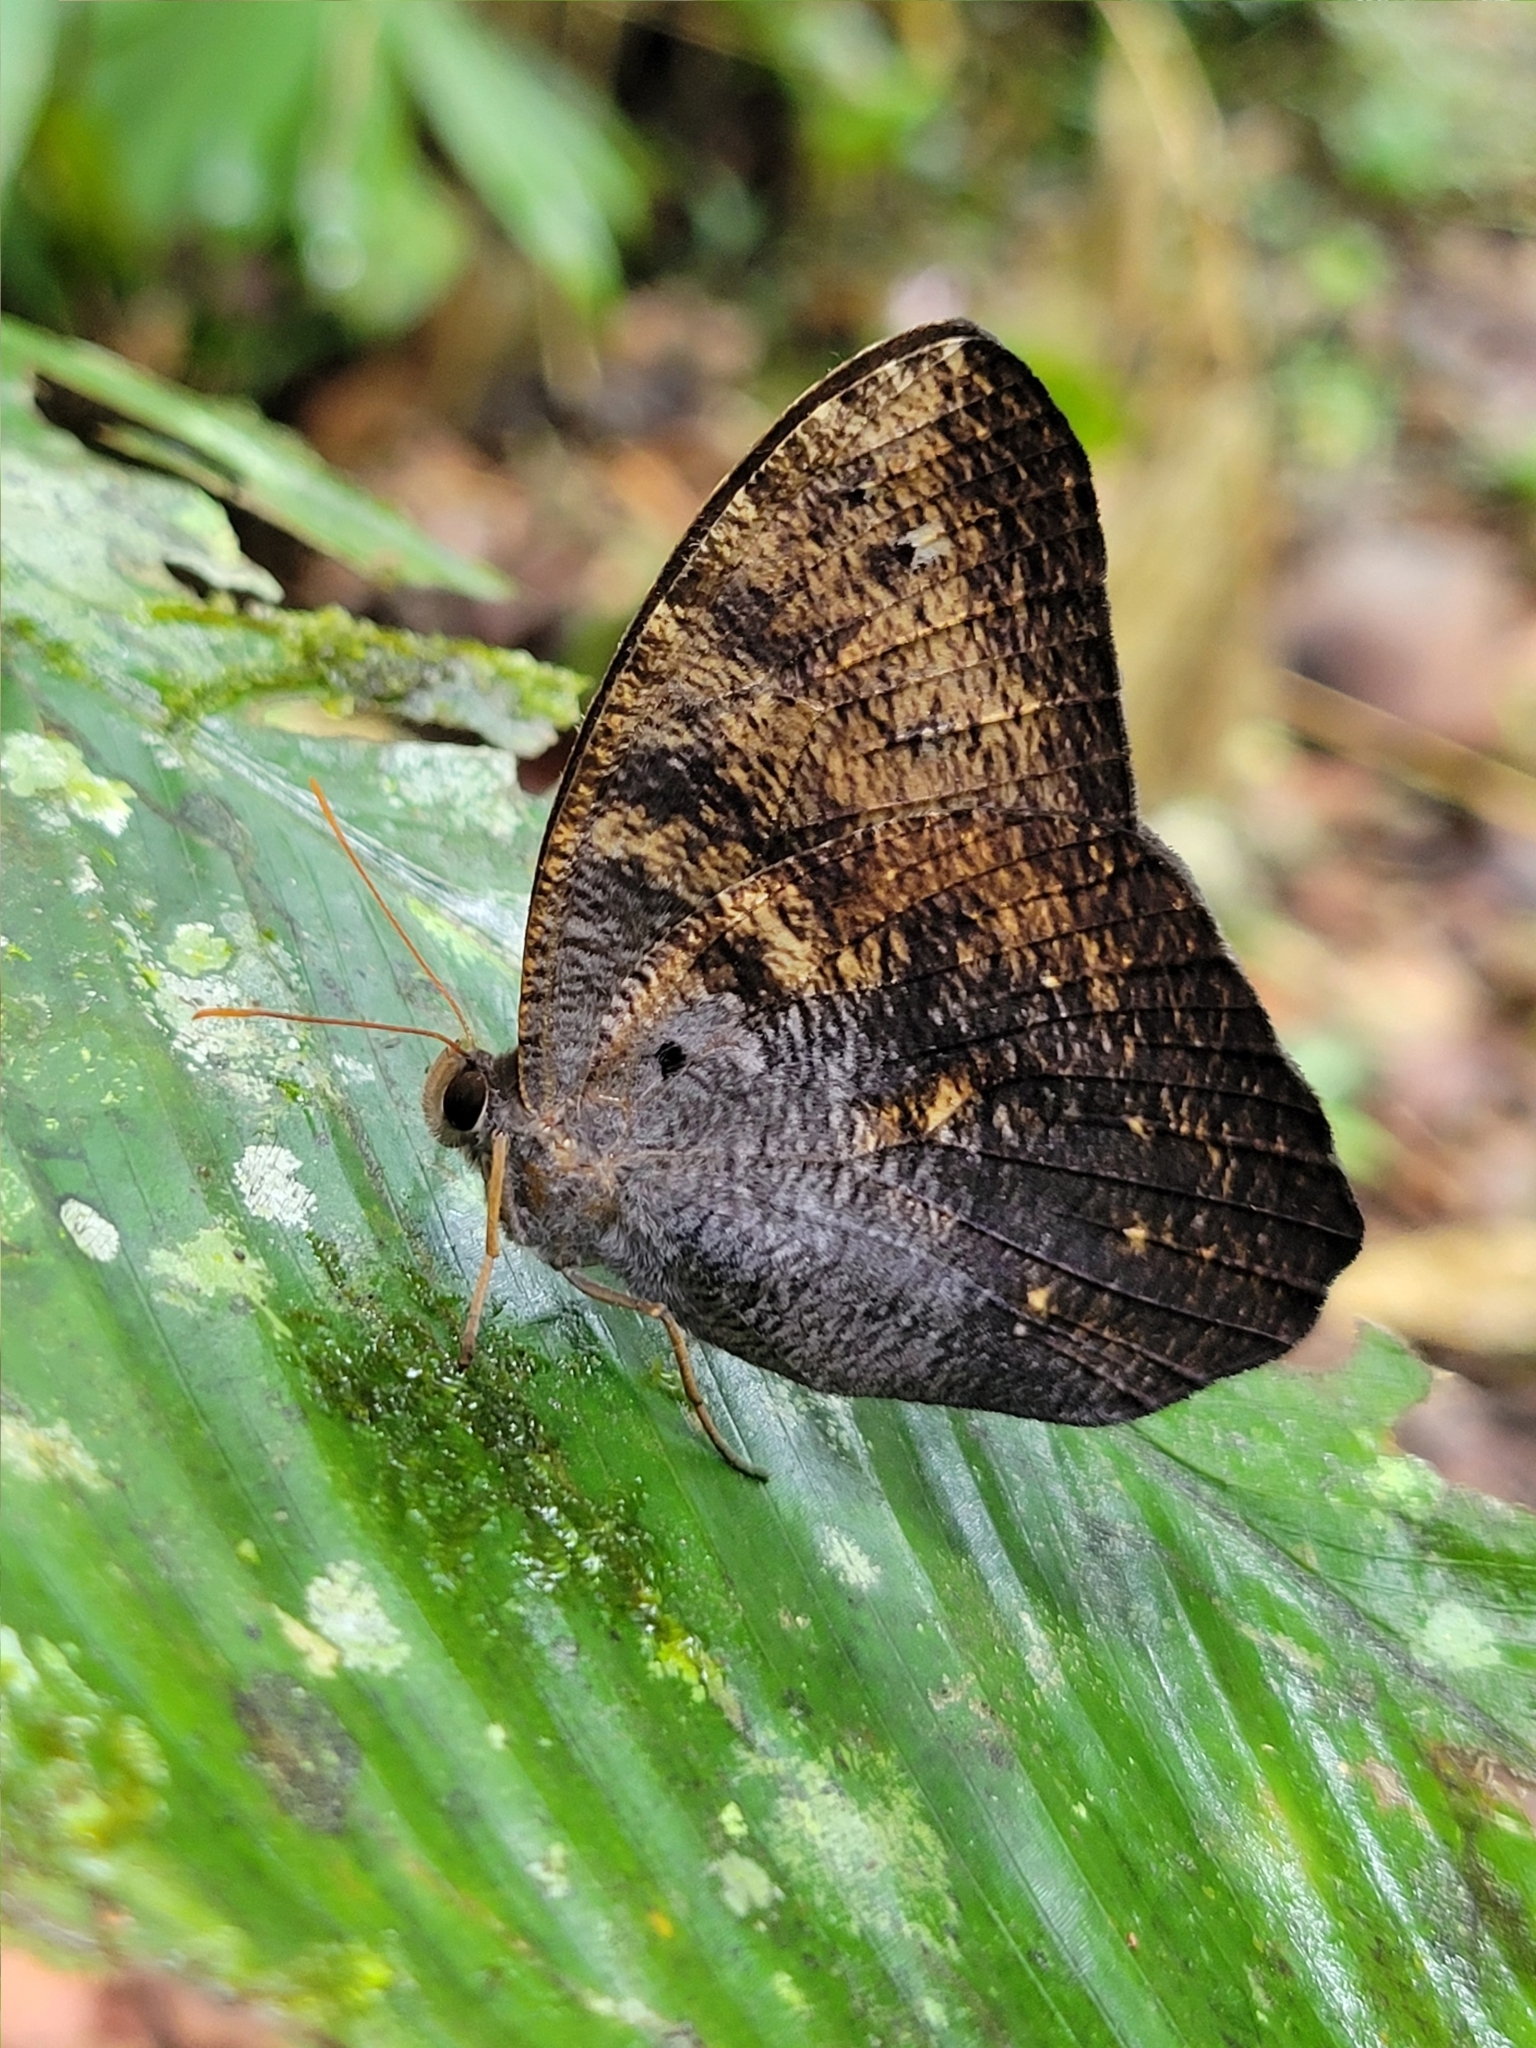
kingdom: Animalia
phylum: Arthropoda
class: Insecta
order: Lepidoptera
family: Nymphalidae
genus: Antirrhea
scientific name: Antirrhea hela
